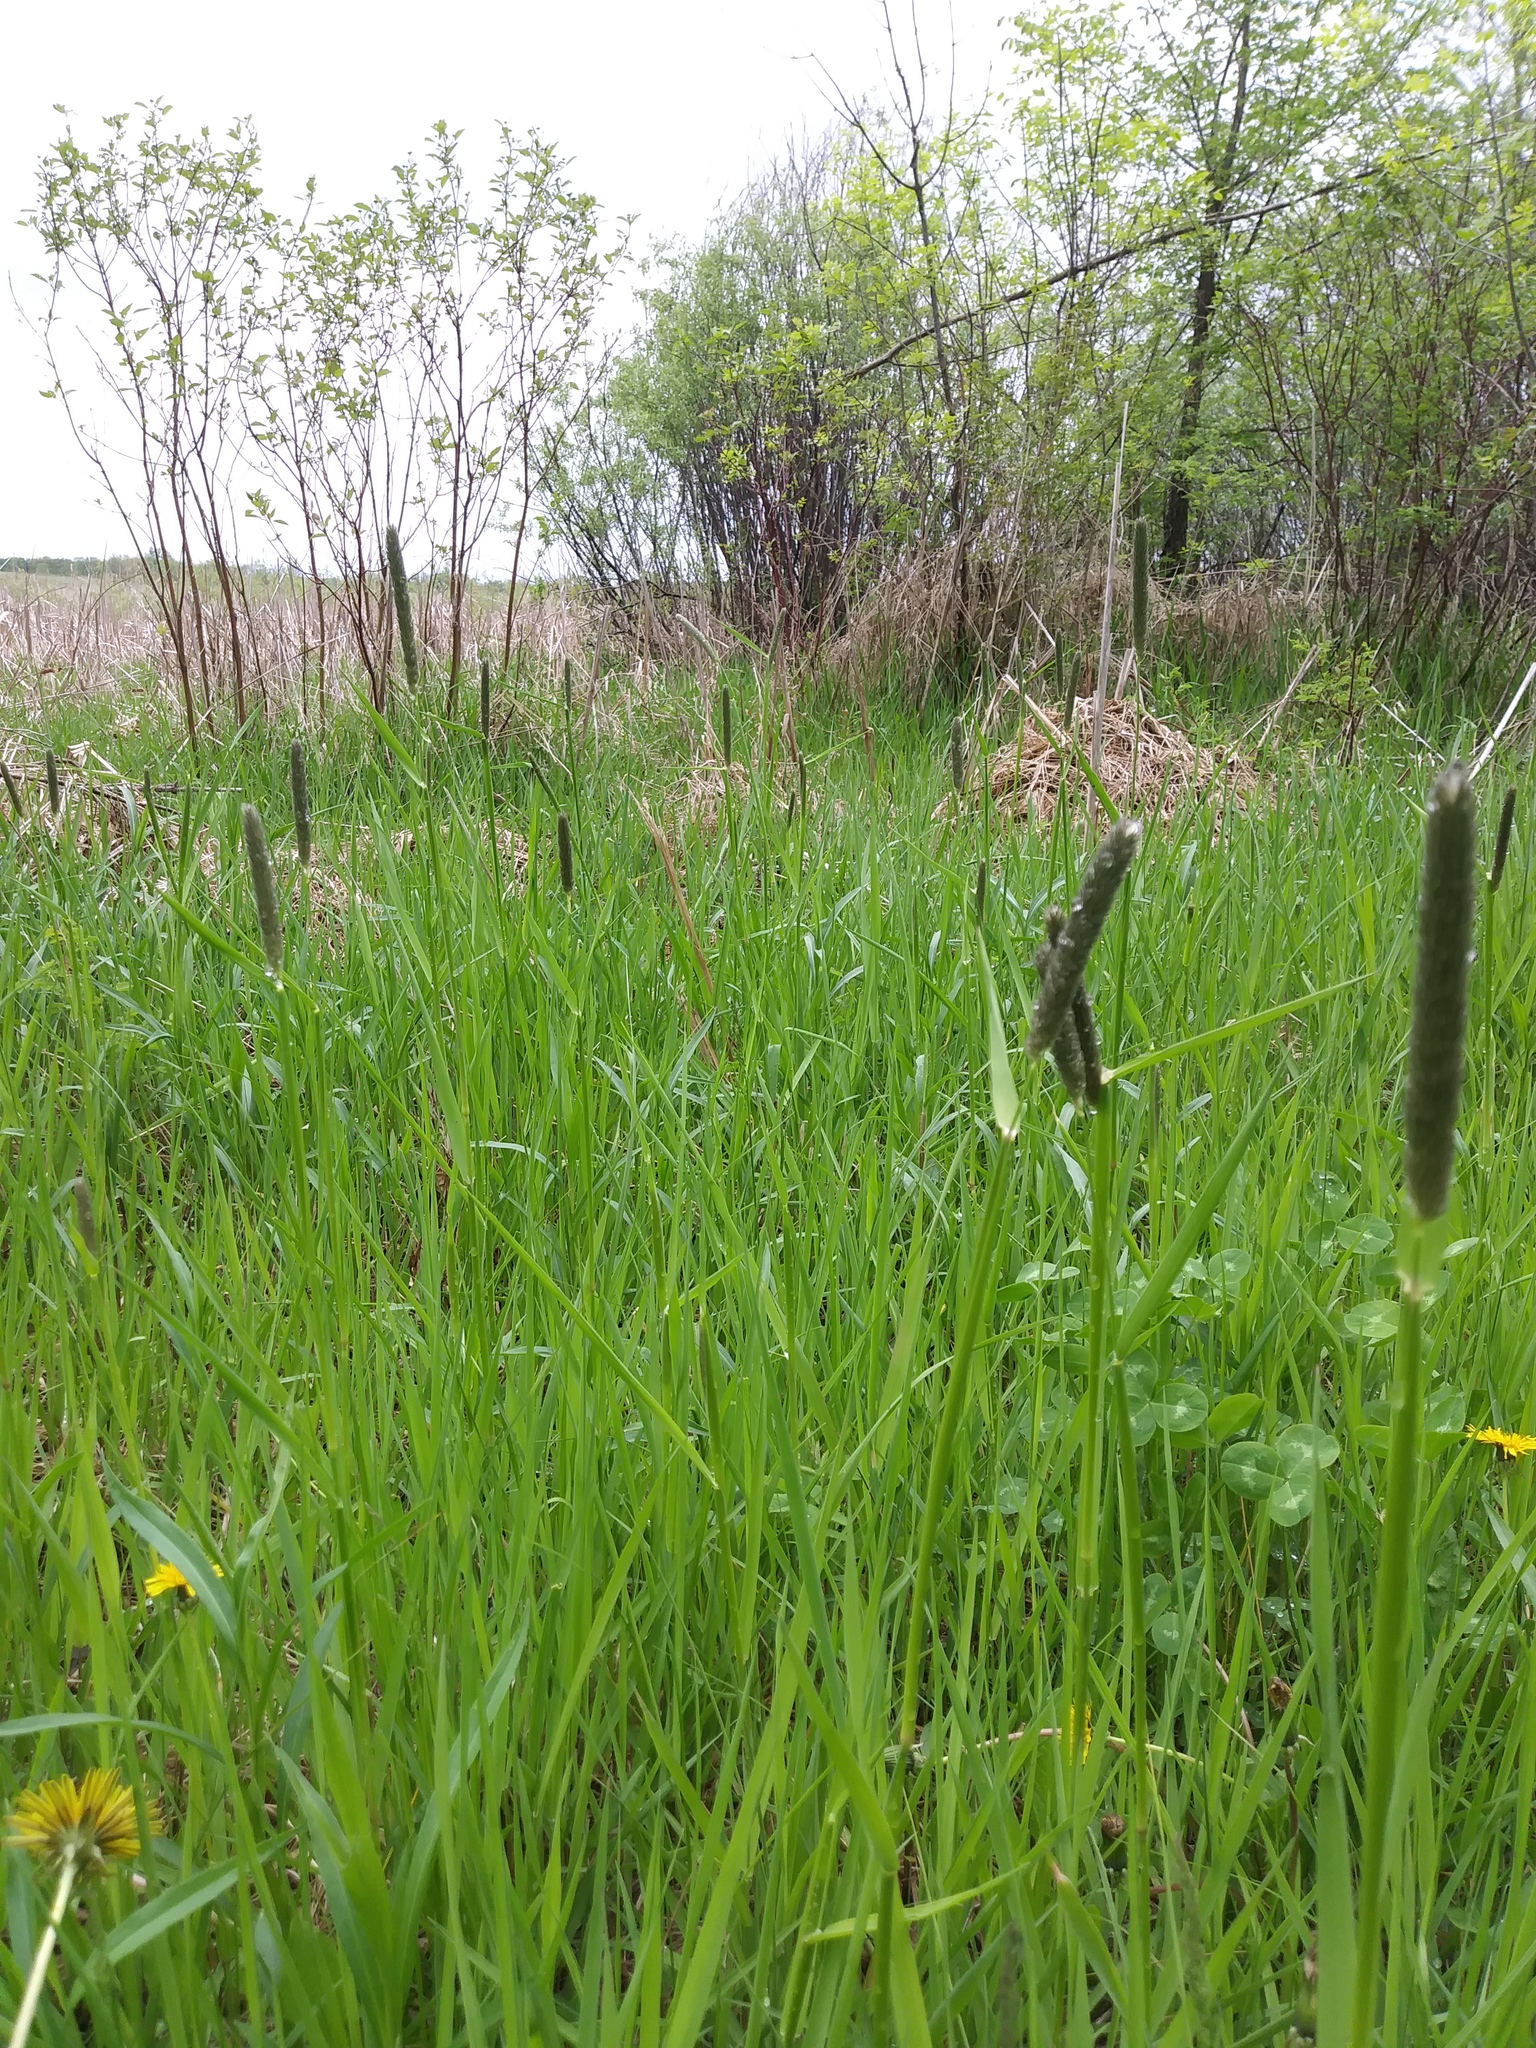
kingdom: Plantae
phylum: Tracheophyta
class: Liliopsida
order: Poales
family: Poaceae
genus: Alopecurus
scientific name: Alopecurus pratensis
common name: Meadow foxtail
